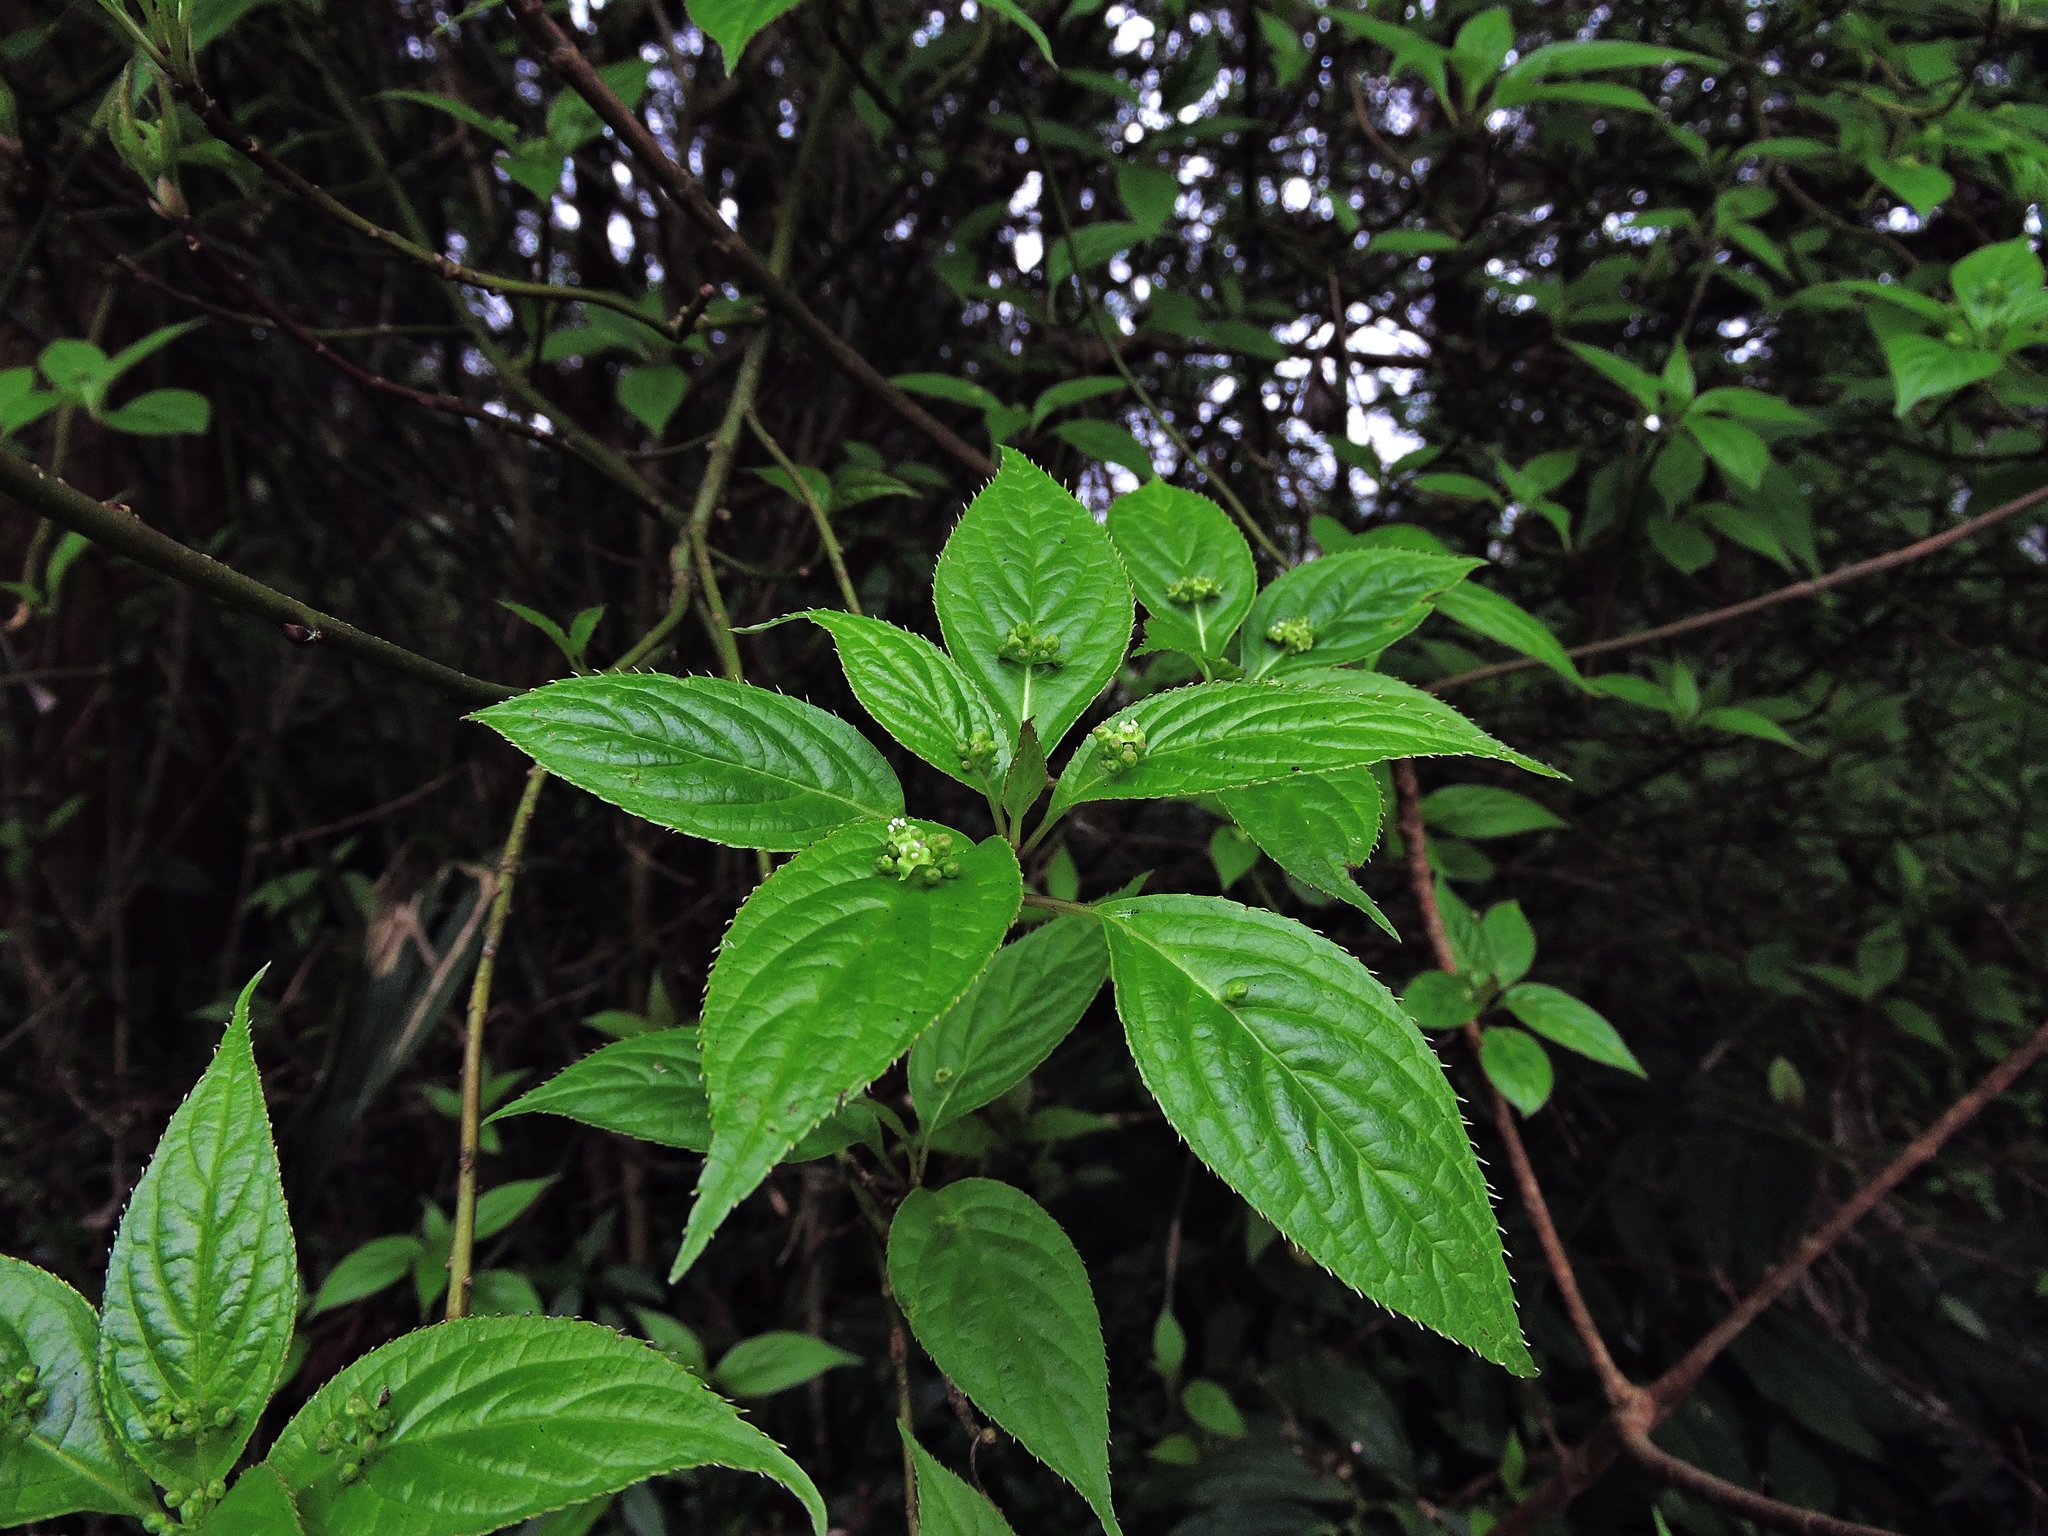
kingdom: Plantae
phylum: Tracheophyta
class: Magnoliopsida
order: Aquifoliales
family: Helwingiaceae
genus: Helwingia
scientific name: Helwingia japonica
